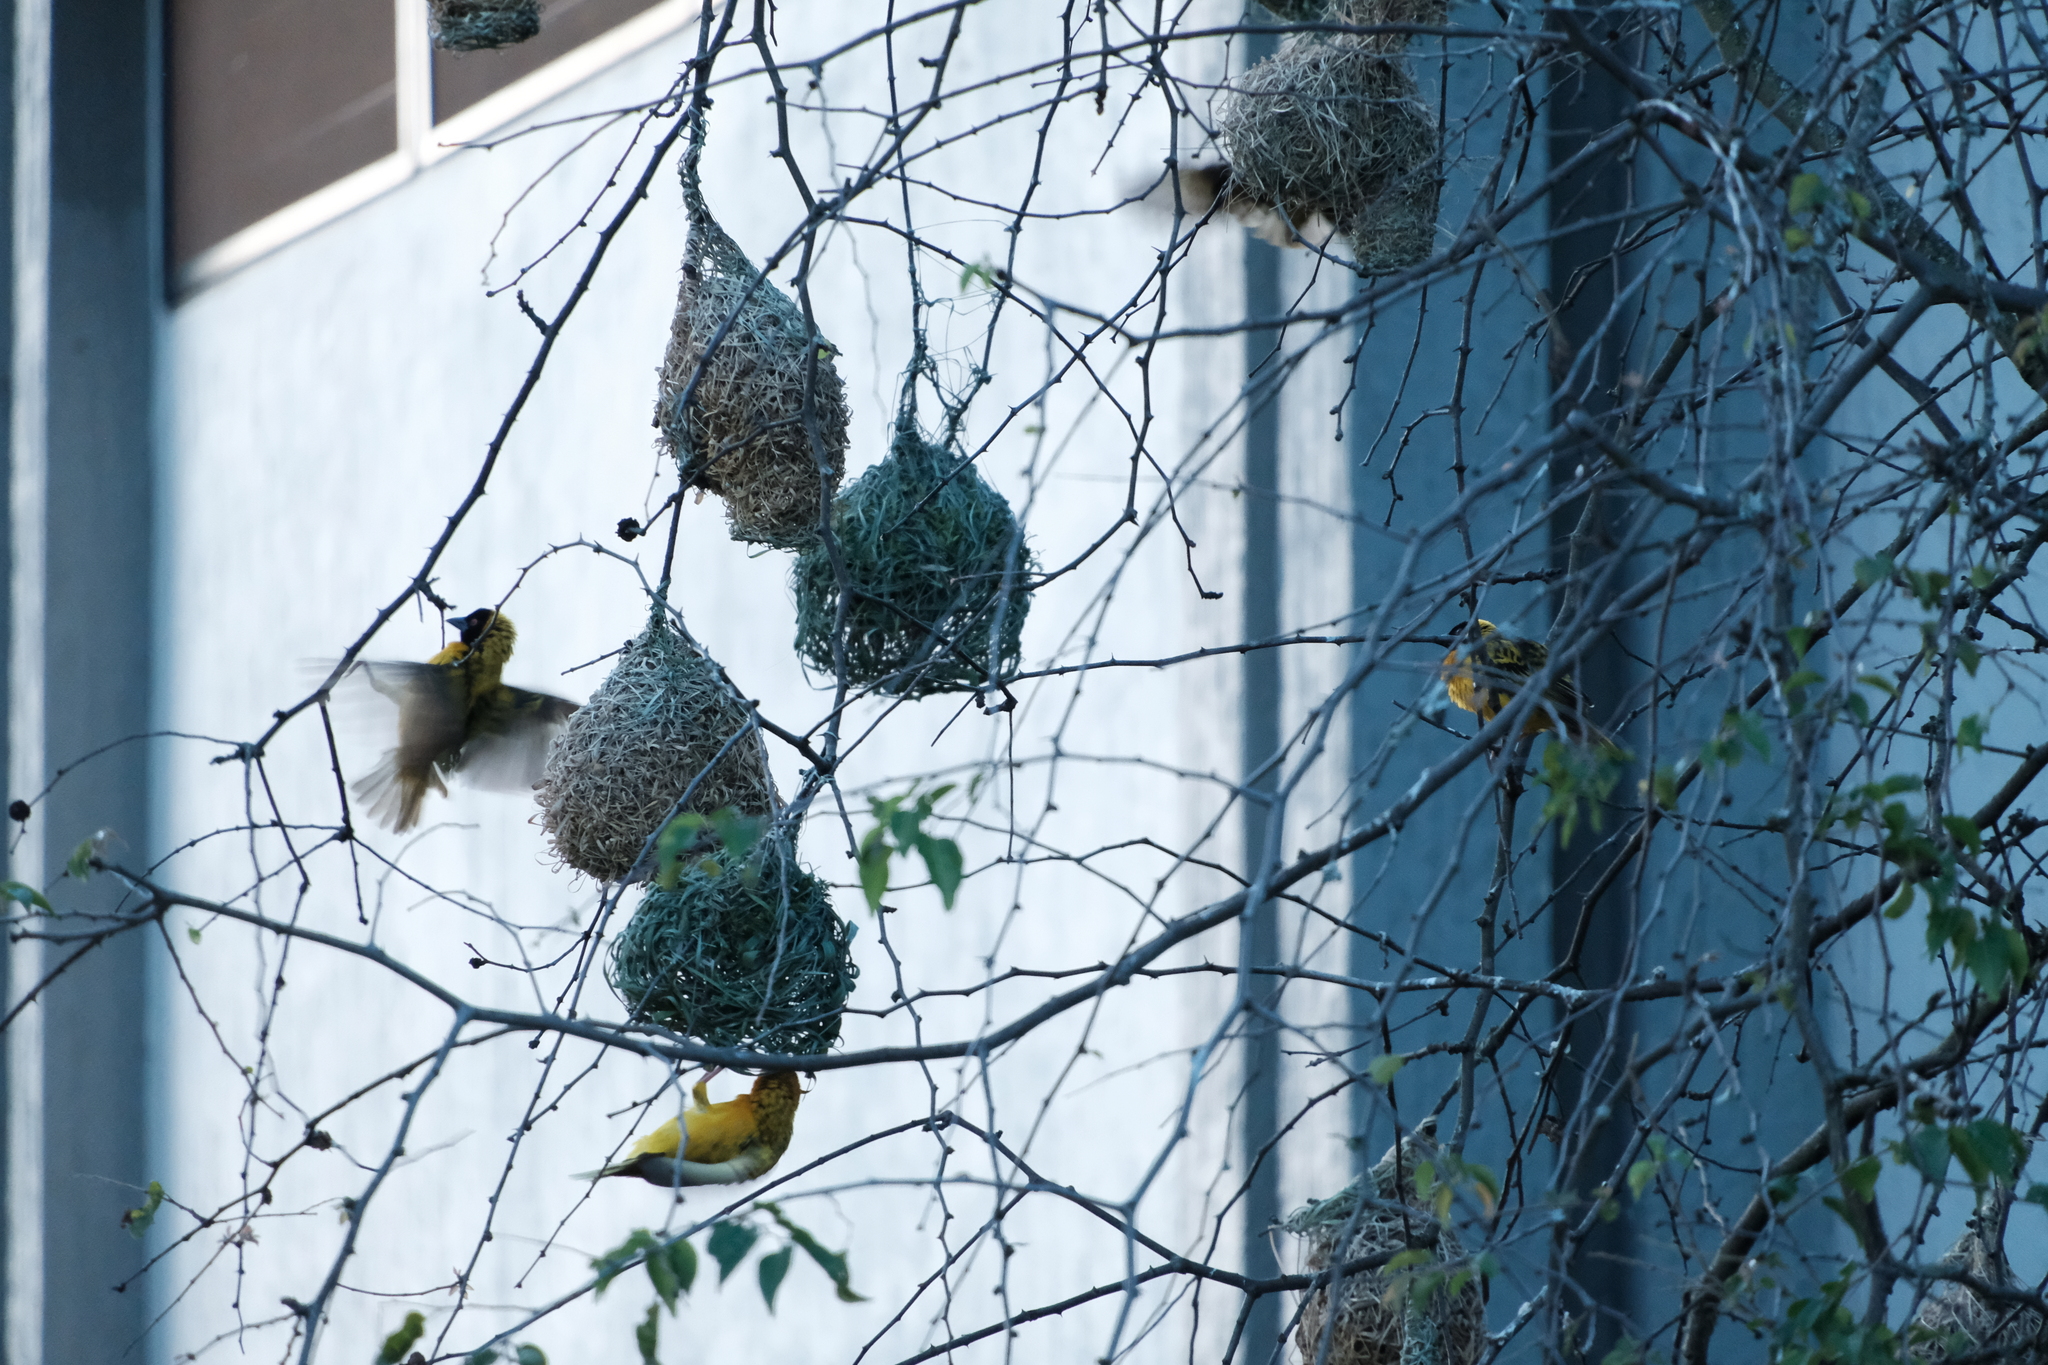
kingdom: Animalia
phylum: Chordata
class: Aves
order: Passeriformes
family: Ploceidae
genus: Ploceus
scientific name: Ploceus cucullatus
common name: Village weaver
